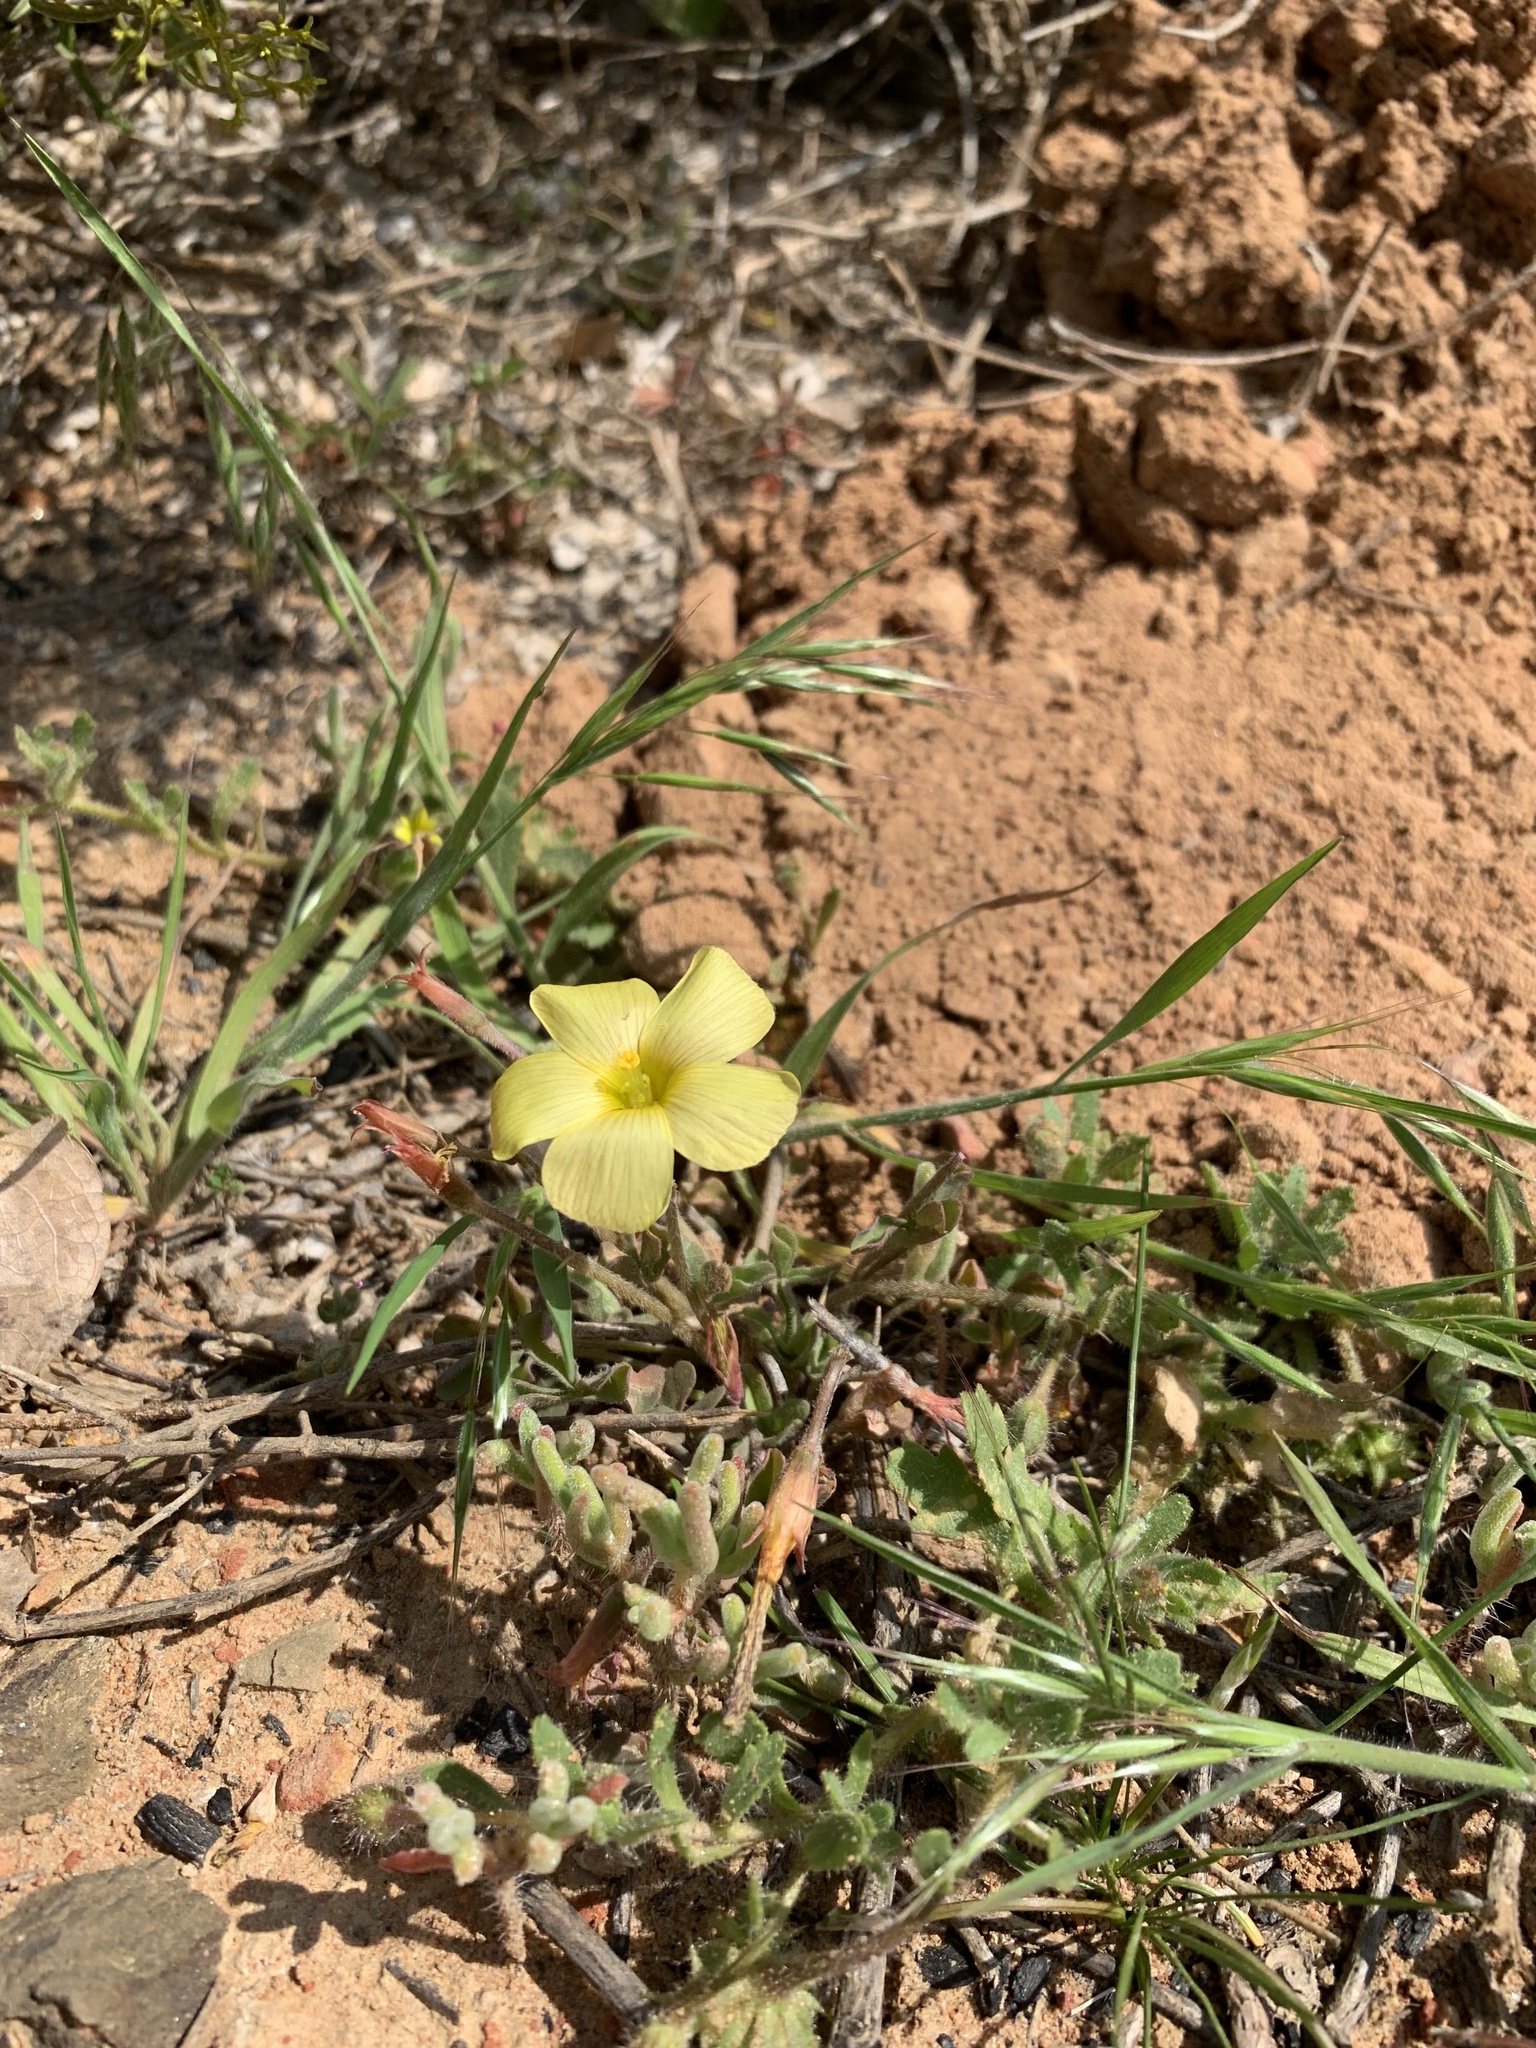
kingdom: Plantae
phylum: Tracheophyta
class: Magnoliopsida
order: Oxalidales
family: Oxalidaceae
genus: Oxalis
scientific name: Oxalis obtusa
